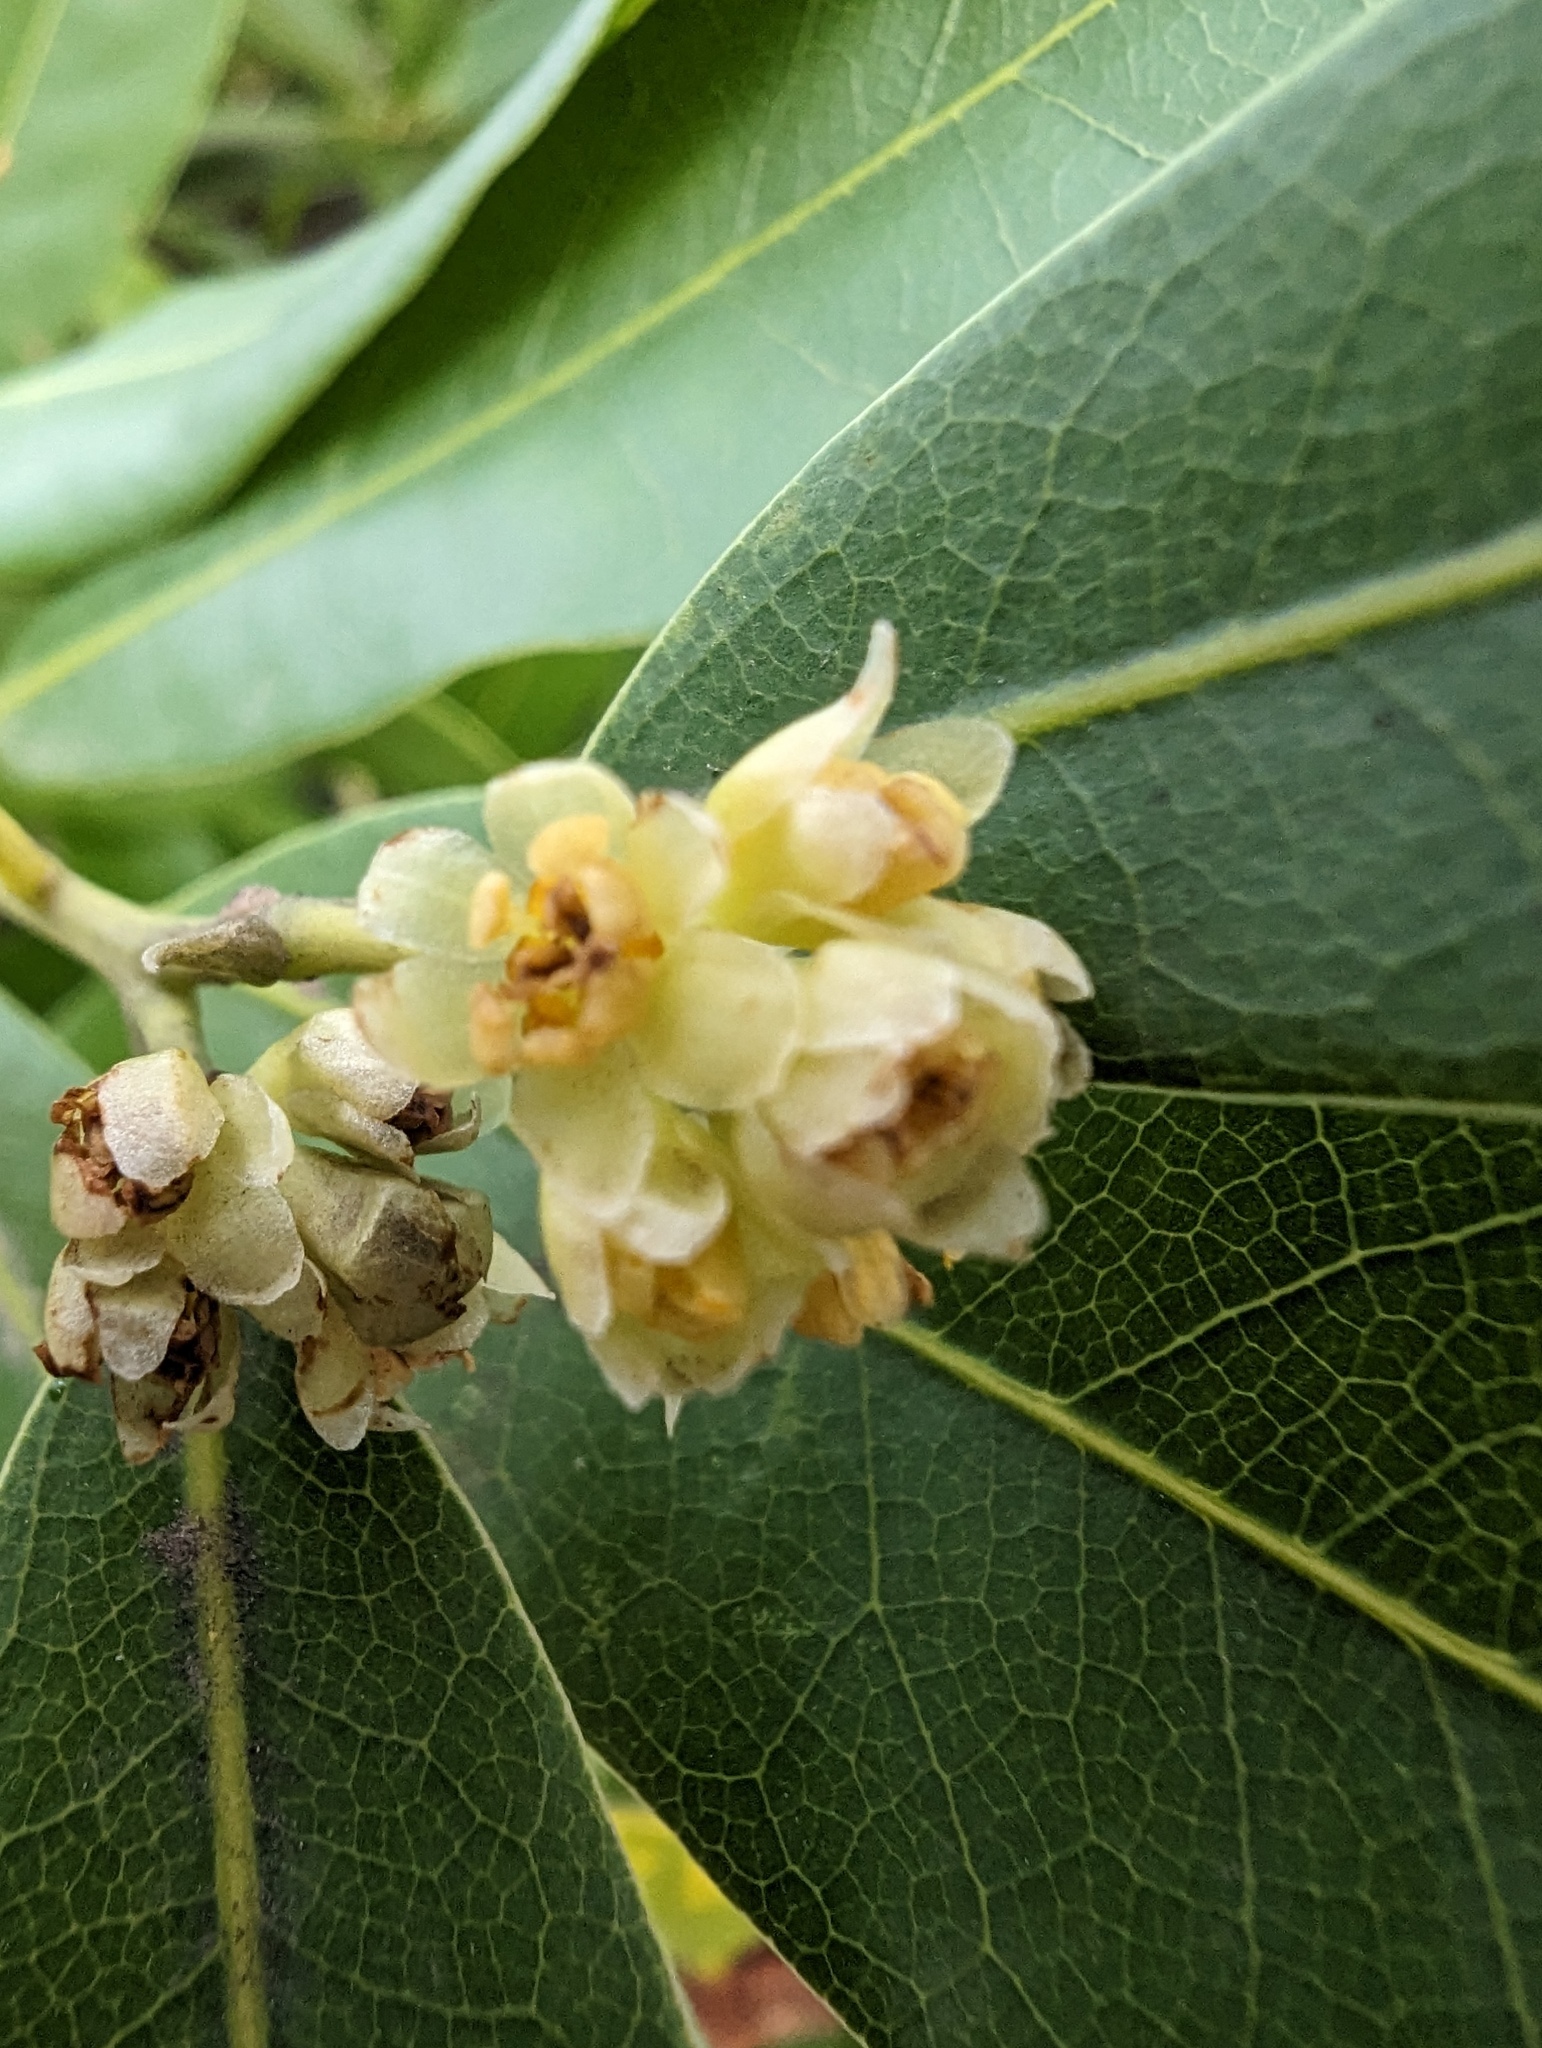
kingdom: Plantae
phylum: Tracheophyta
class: Magnoliopsida
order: Laurales
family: Lauraceae
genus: Umbellularia
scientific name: Umbellularia californica
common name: California bay
